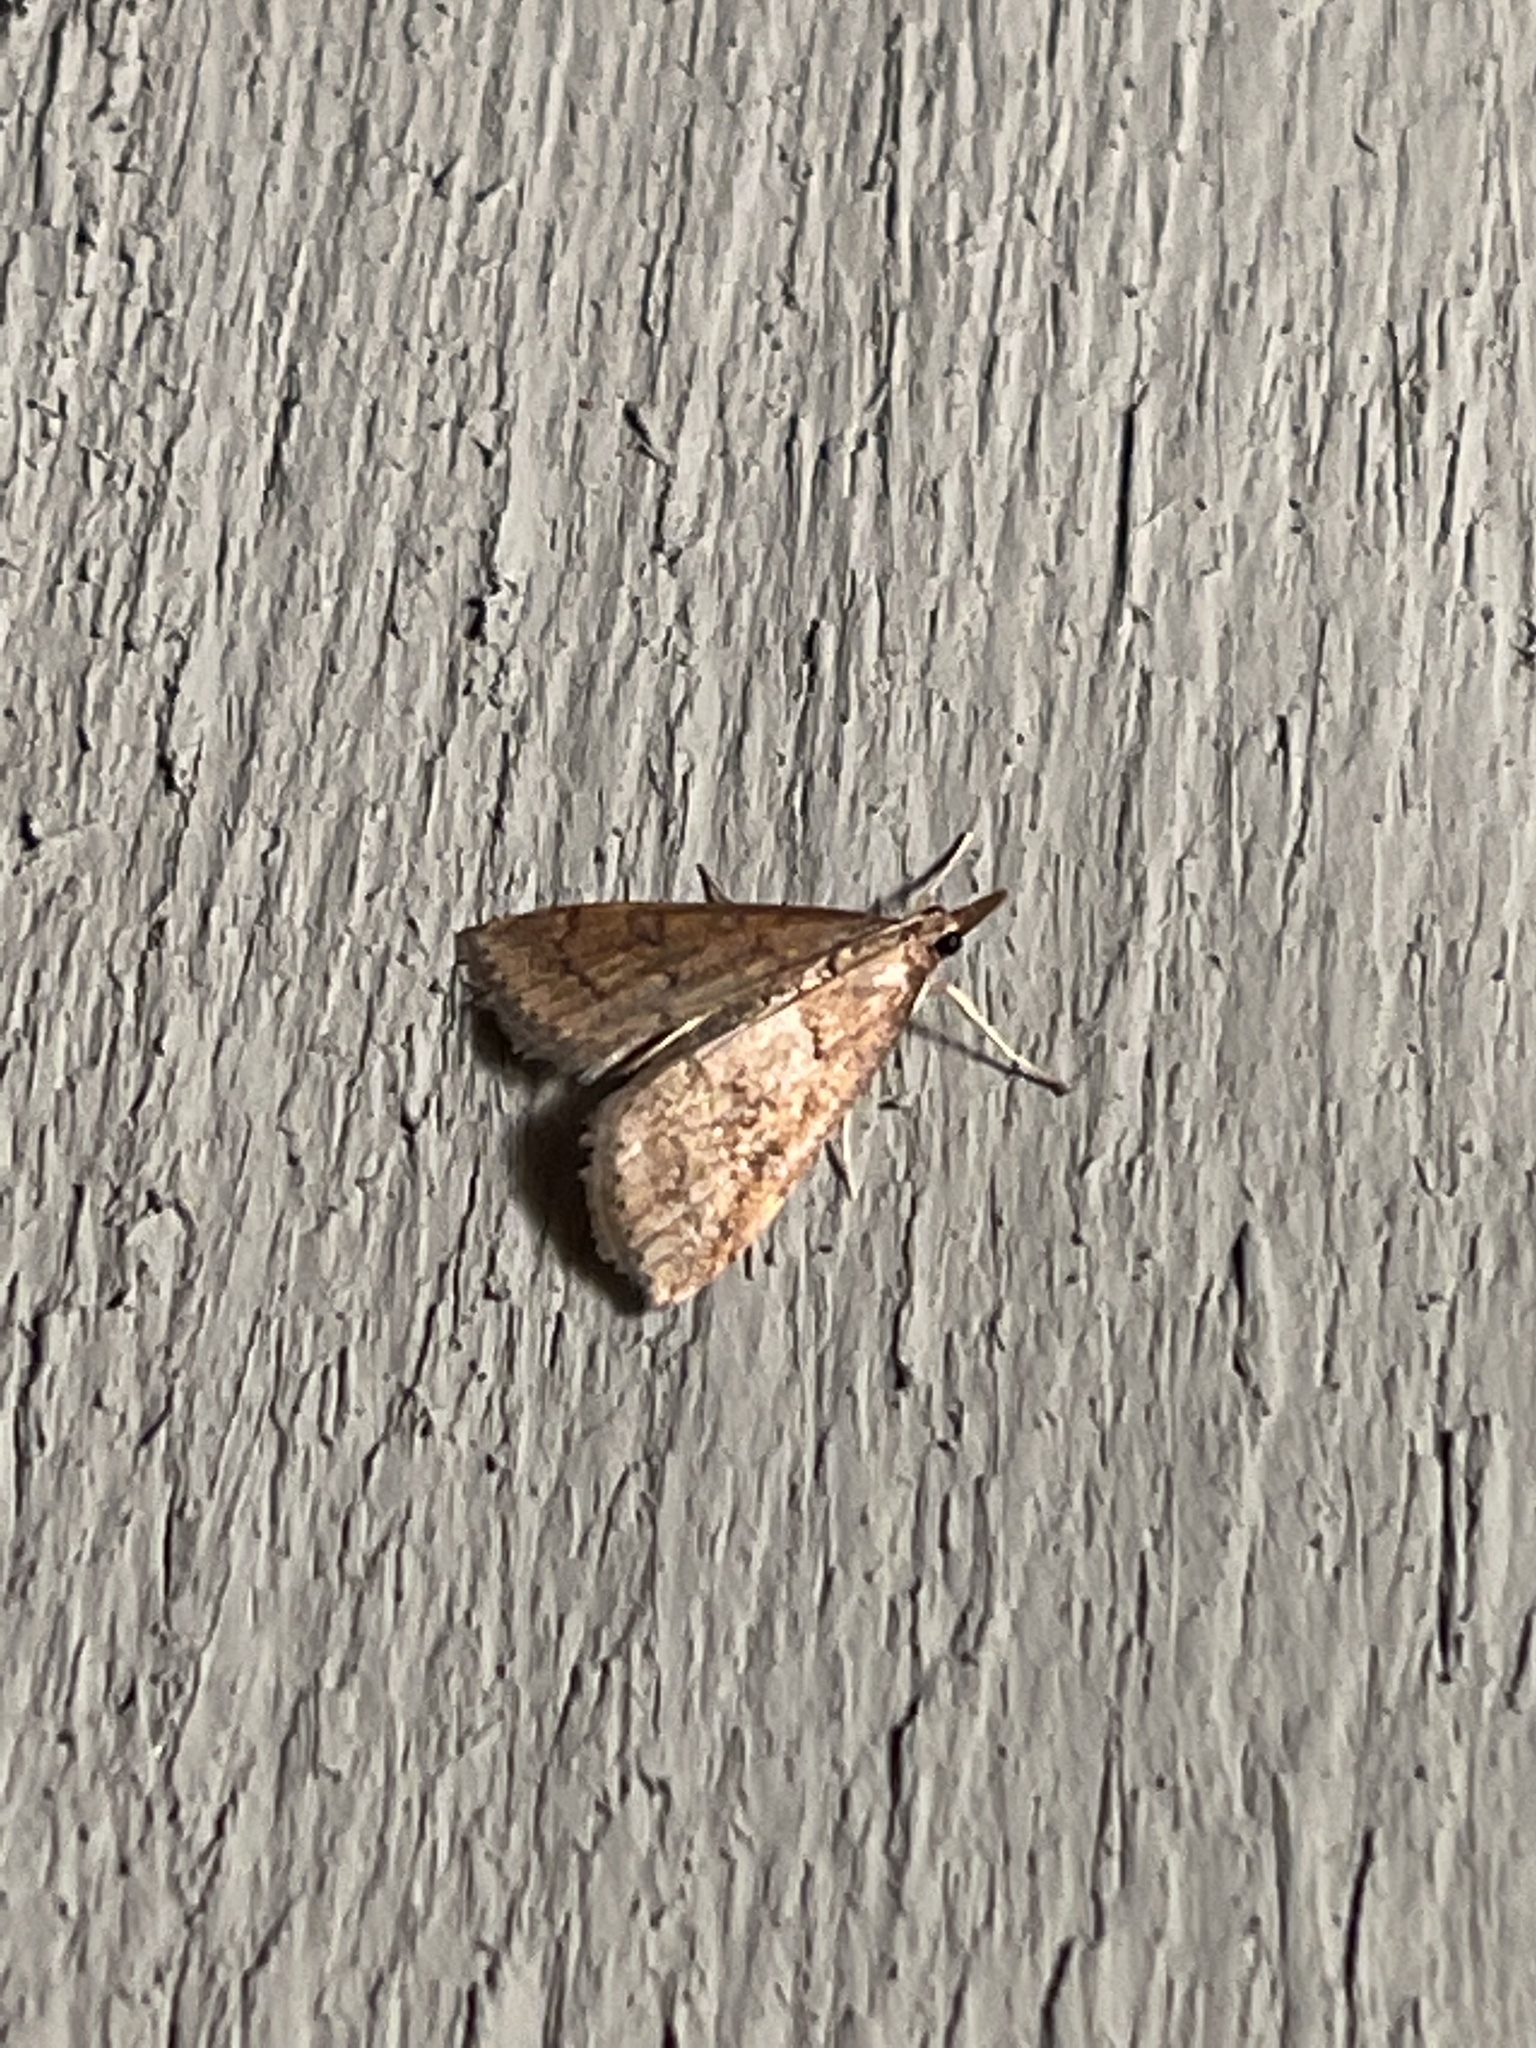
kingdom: Animalia
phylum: Arthropoda
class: Insecta
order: Lepidoptera
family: Crambidae
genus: Udea
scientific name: Udea rubigalis
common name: Celery leaftier moth
